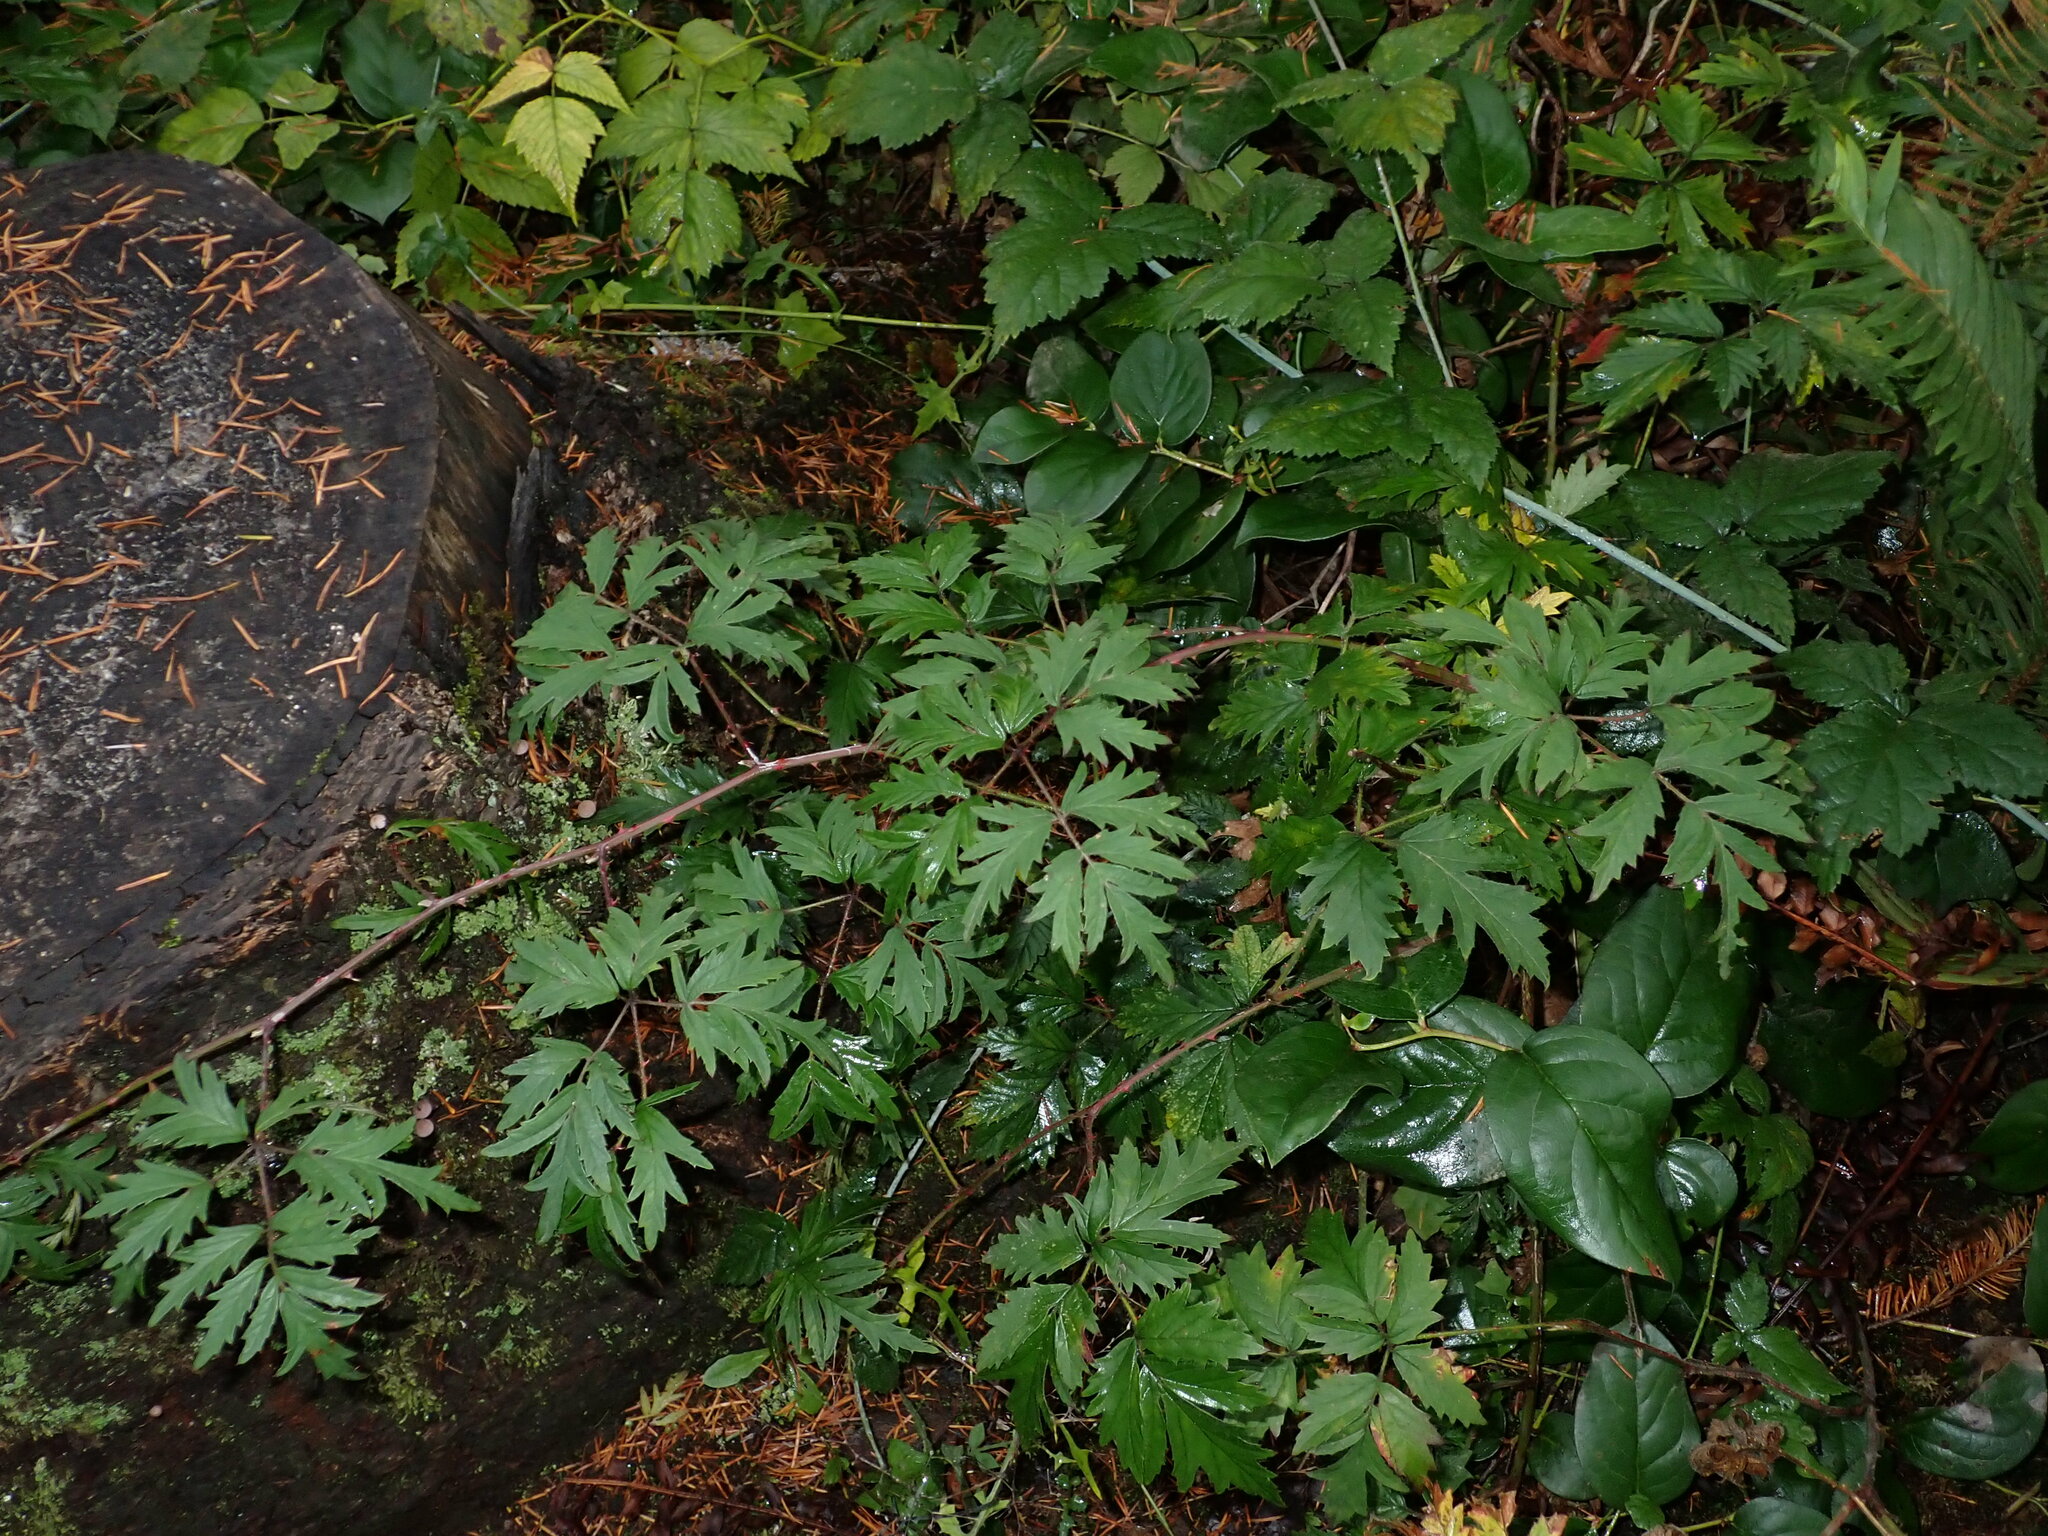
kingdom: Plantae
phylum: Tracheophyta
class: Magnoliopsida
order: Rosales
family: Rosaceae
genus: Rubus
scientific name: Rubus laciniatus
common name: Evergreen blackberry
